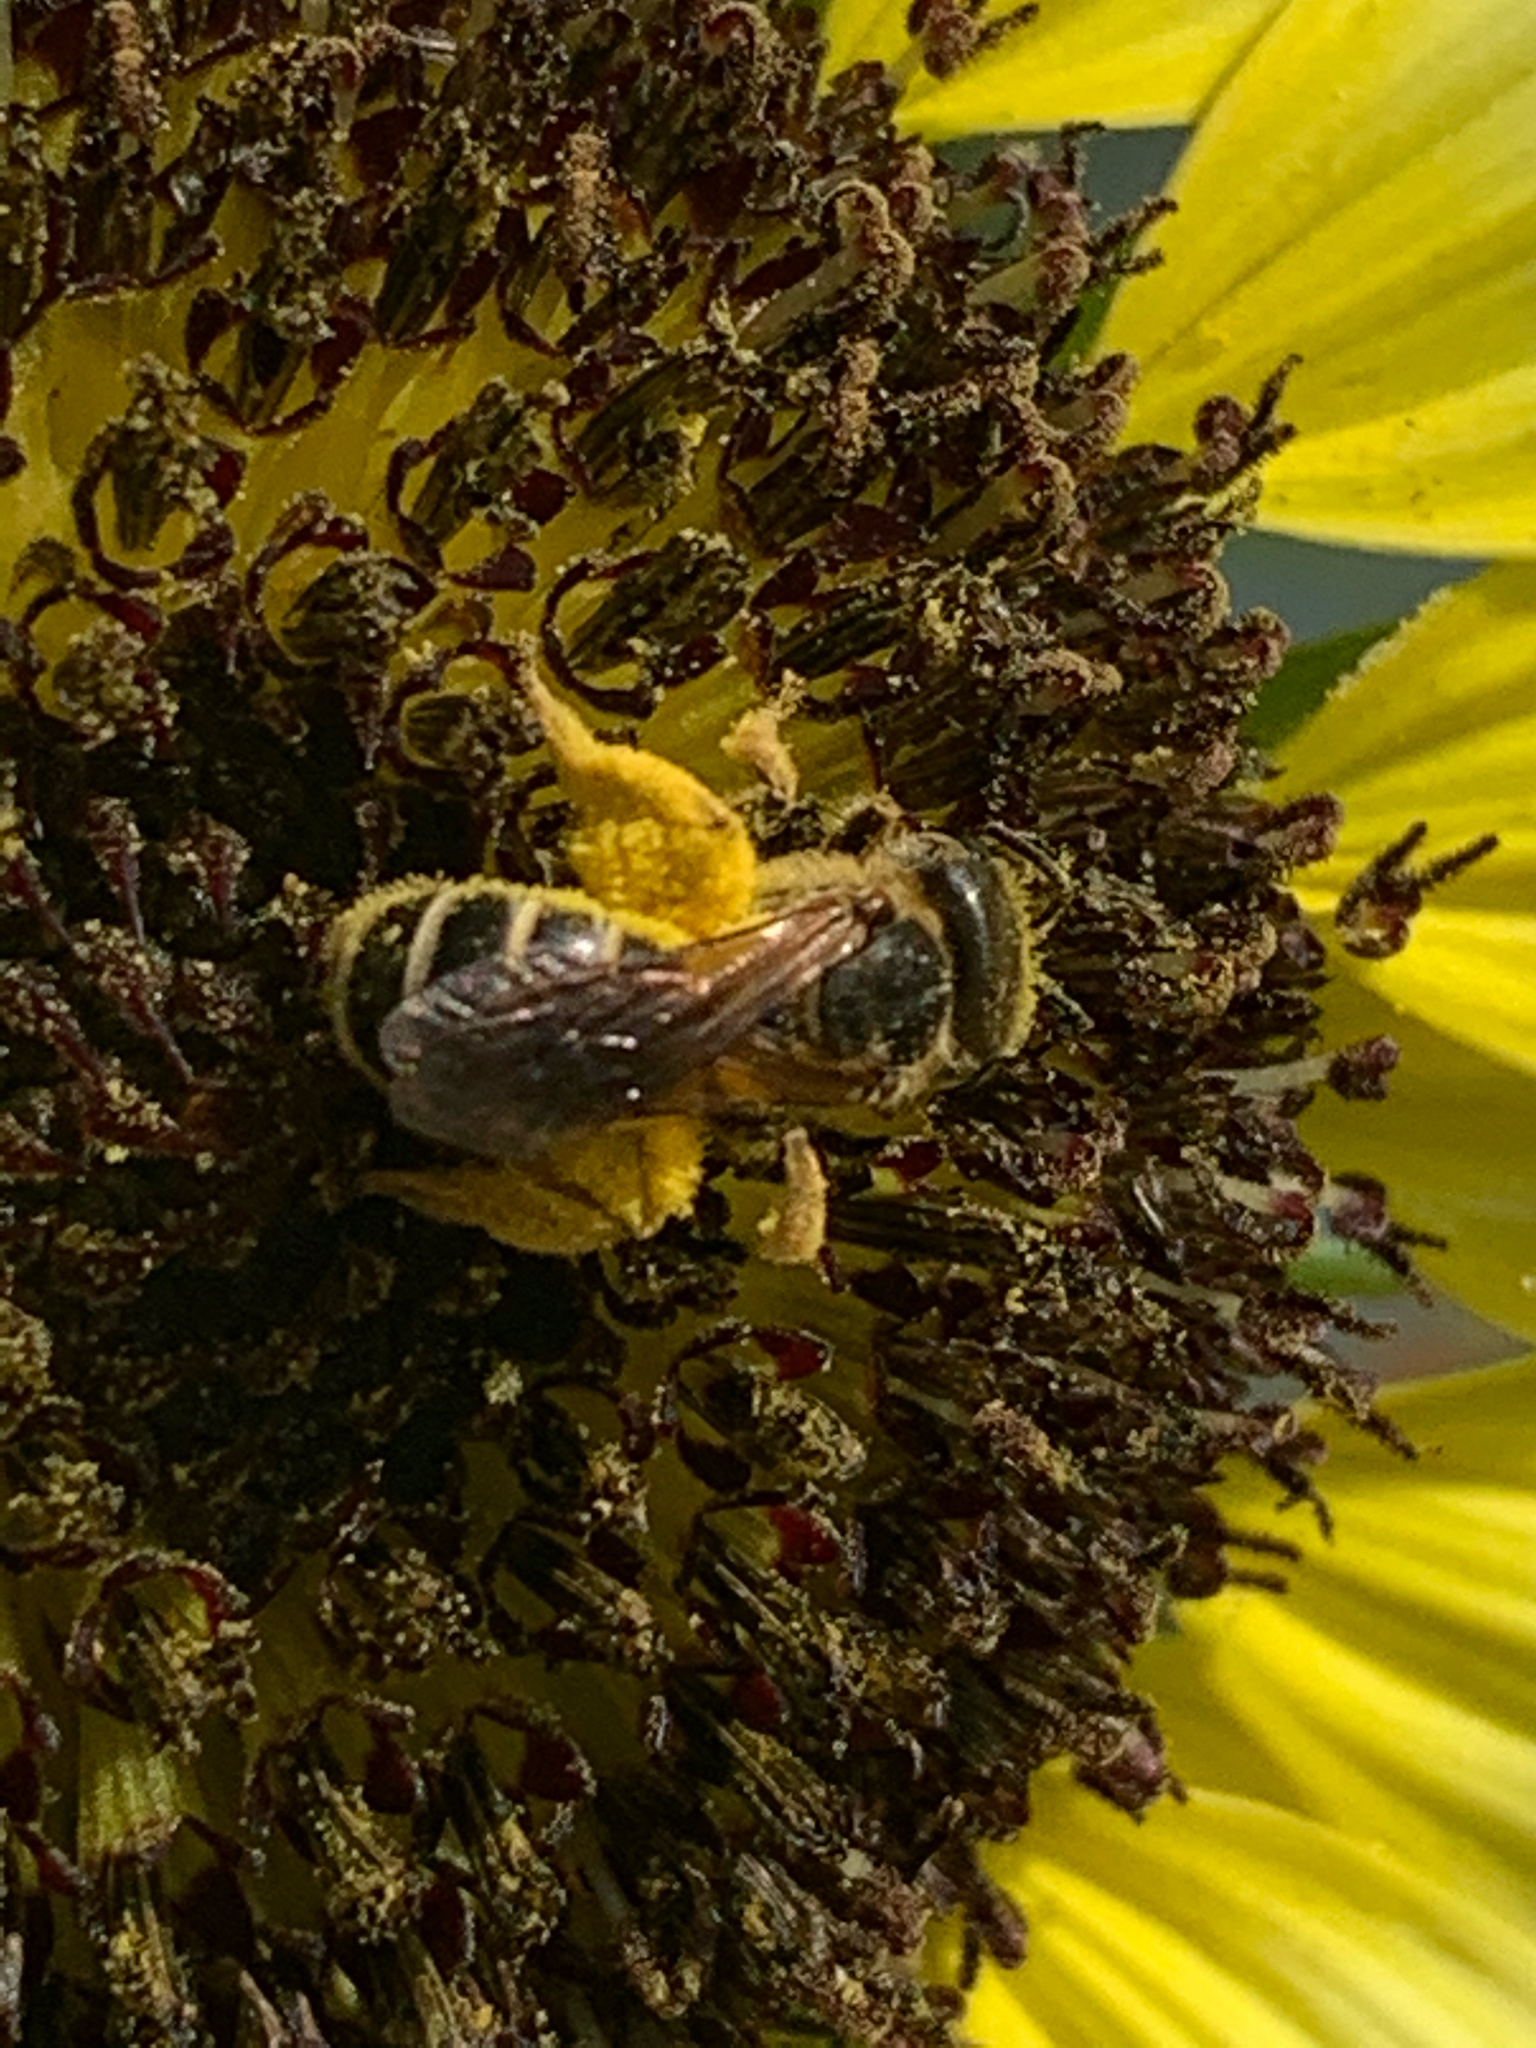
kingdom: Animalia
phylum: Arthropoda
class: Insecta
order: Hymenoptera
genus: Odontalictus
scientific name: Odontalictus
